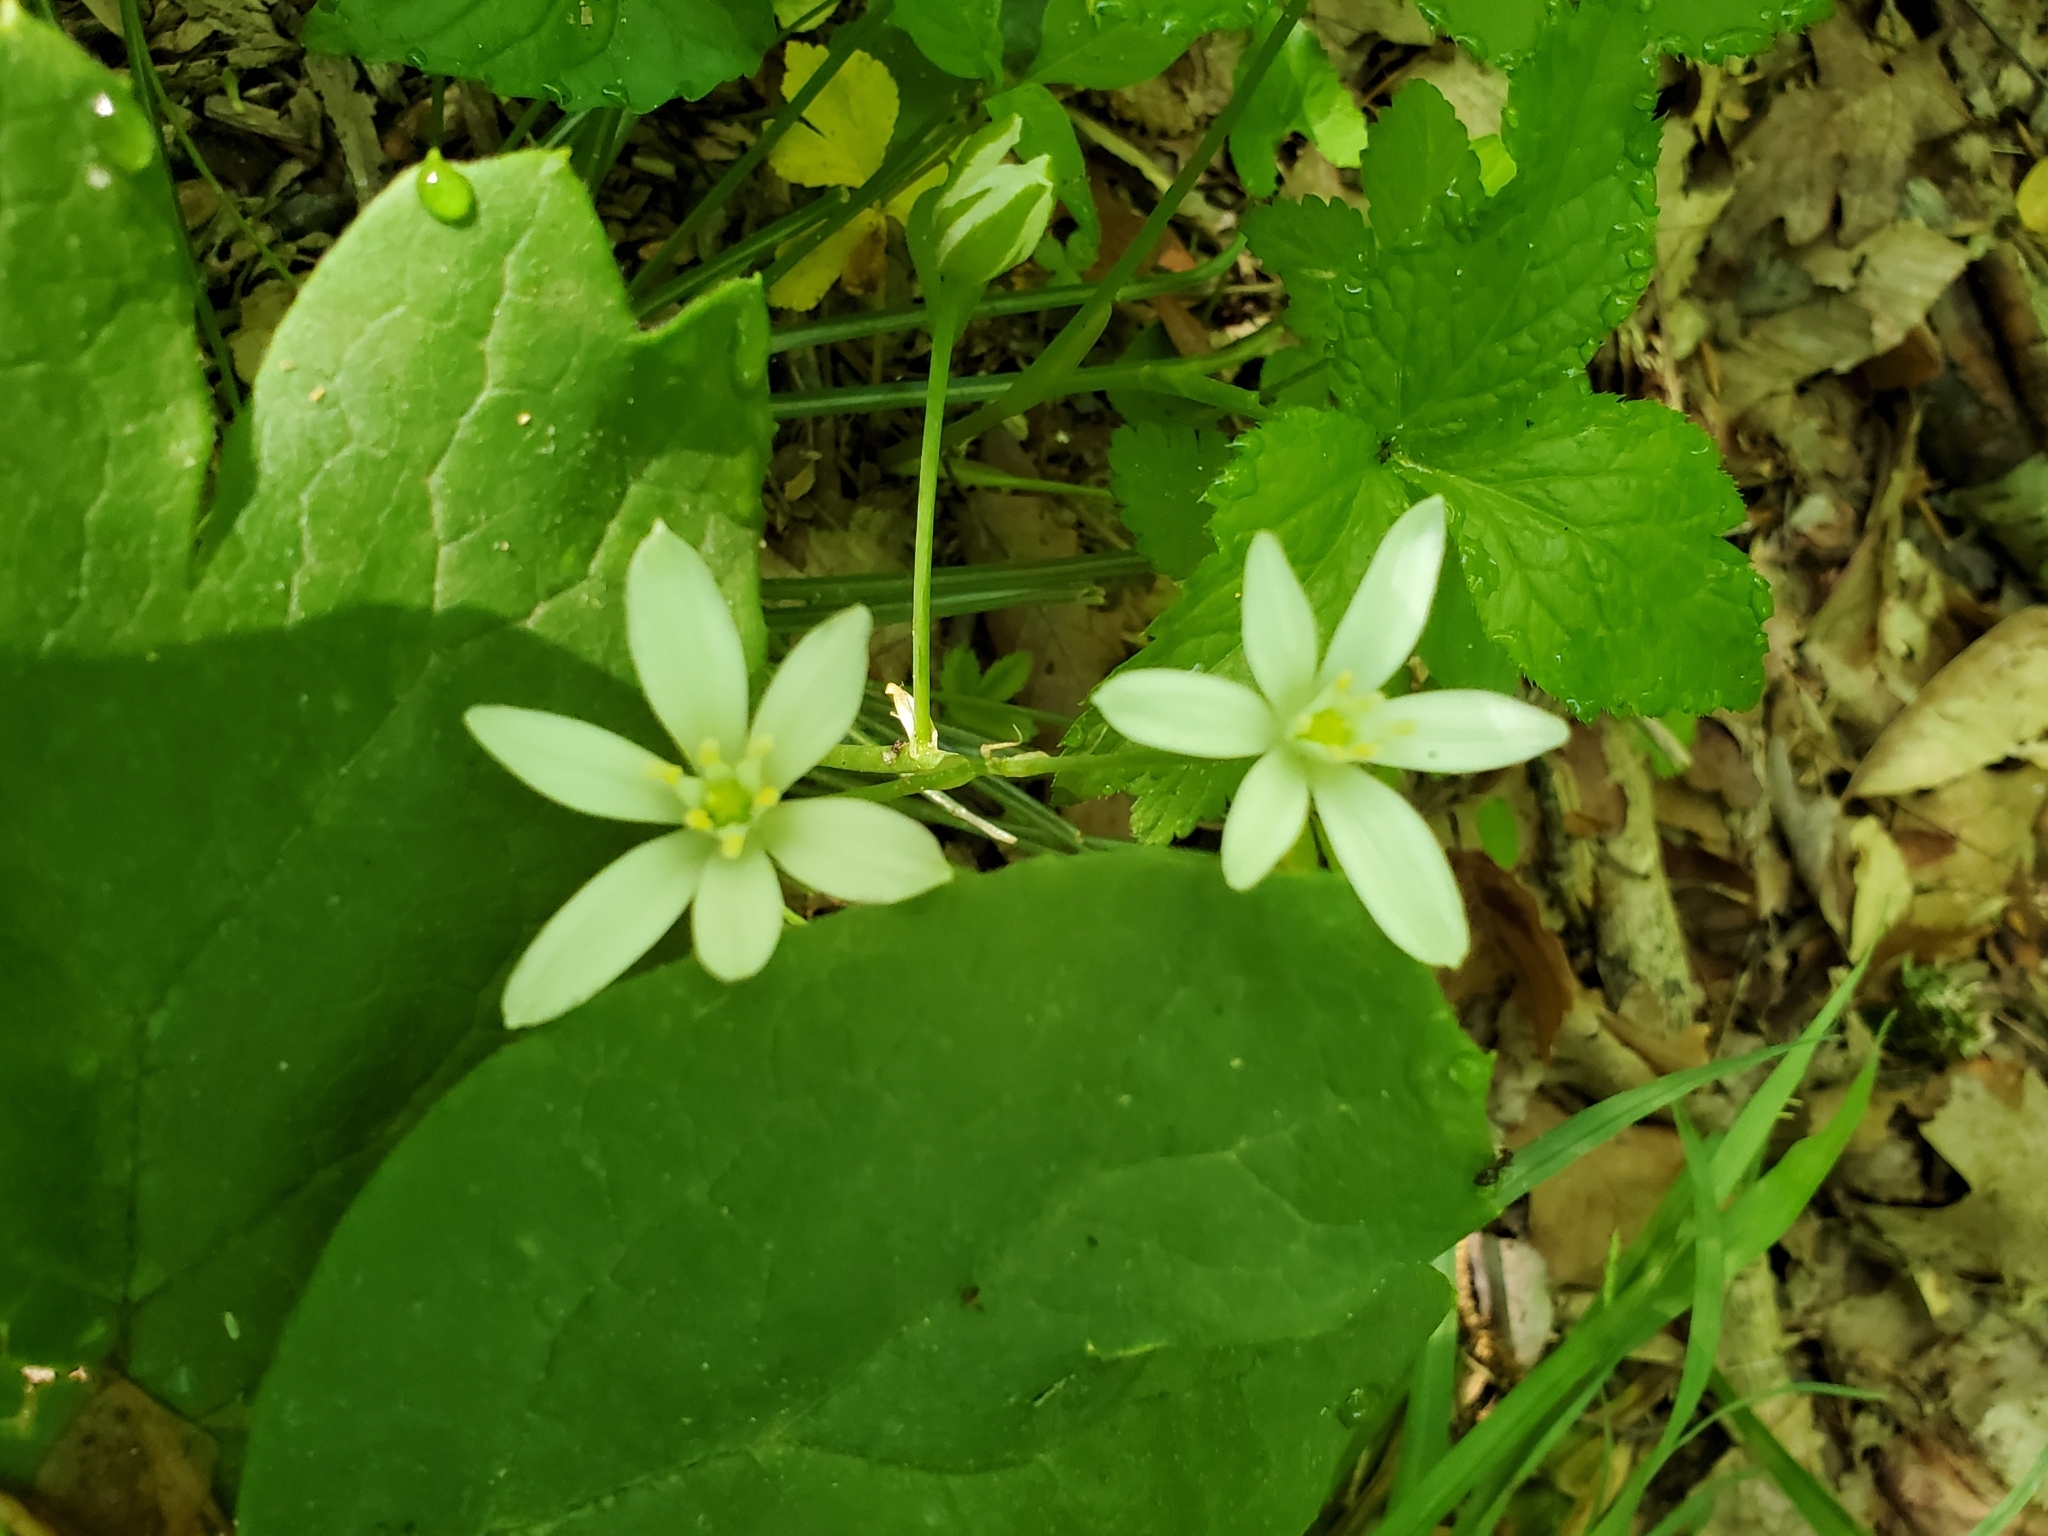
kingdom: Plantae
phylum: Tracheophyta
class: Liliopsida
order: Asparagales
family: Asparagaceae
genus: Ornithogalum
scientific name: Ornithogalum umbellatum
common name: Garden star-of-bethlehem
